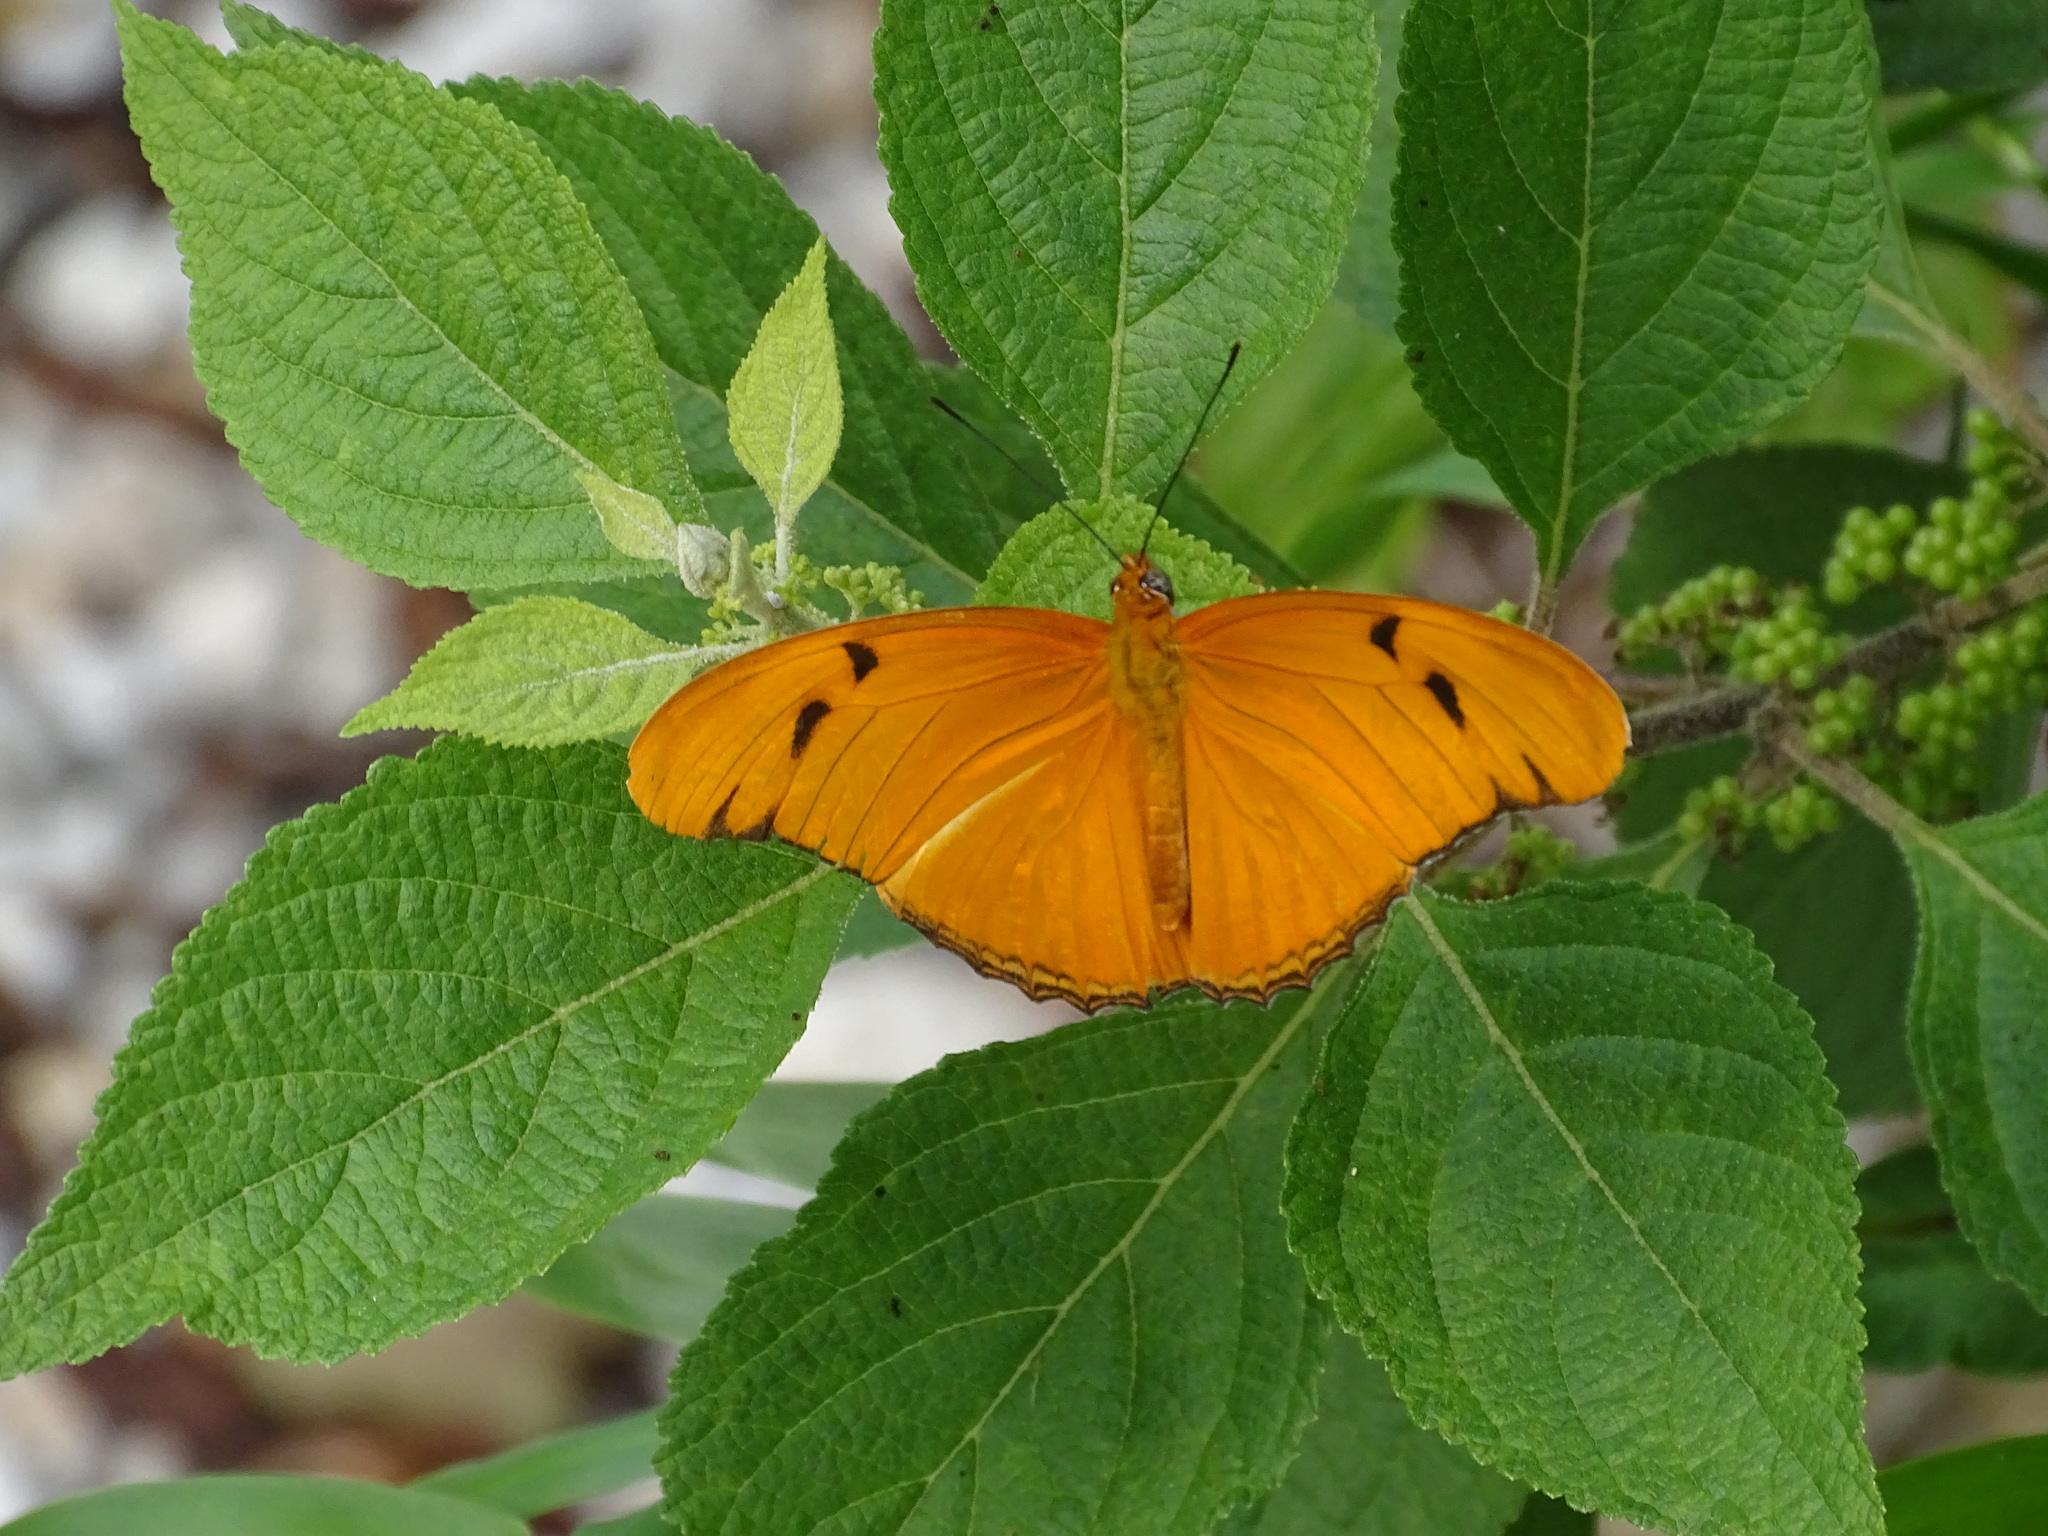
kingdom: Animalia
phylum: Arthropoda
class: Insecta
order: Lepidoptera
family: Nymphalidae
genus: Dryas
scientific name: Dryas iulia
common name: Flambeau
